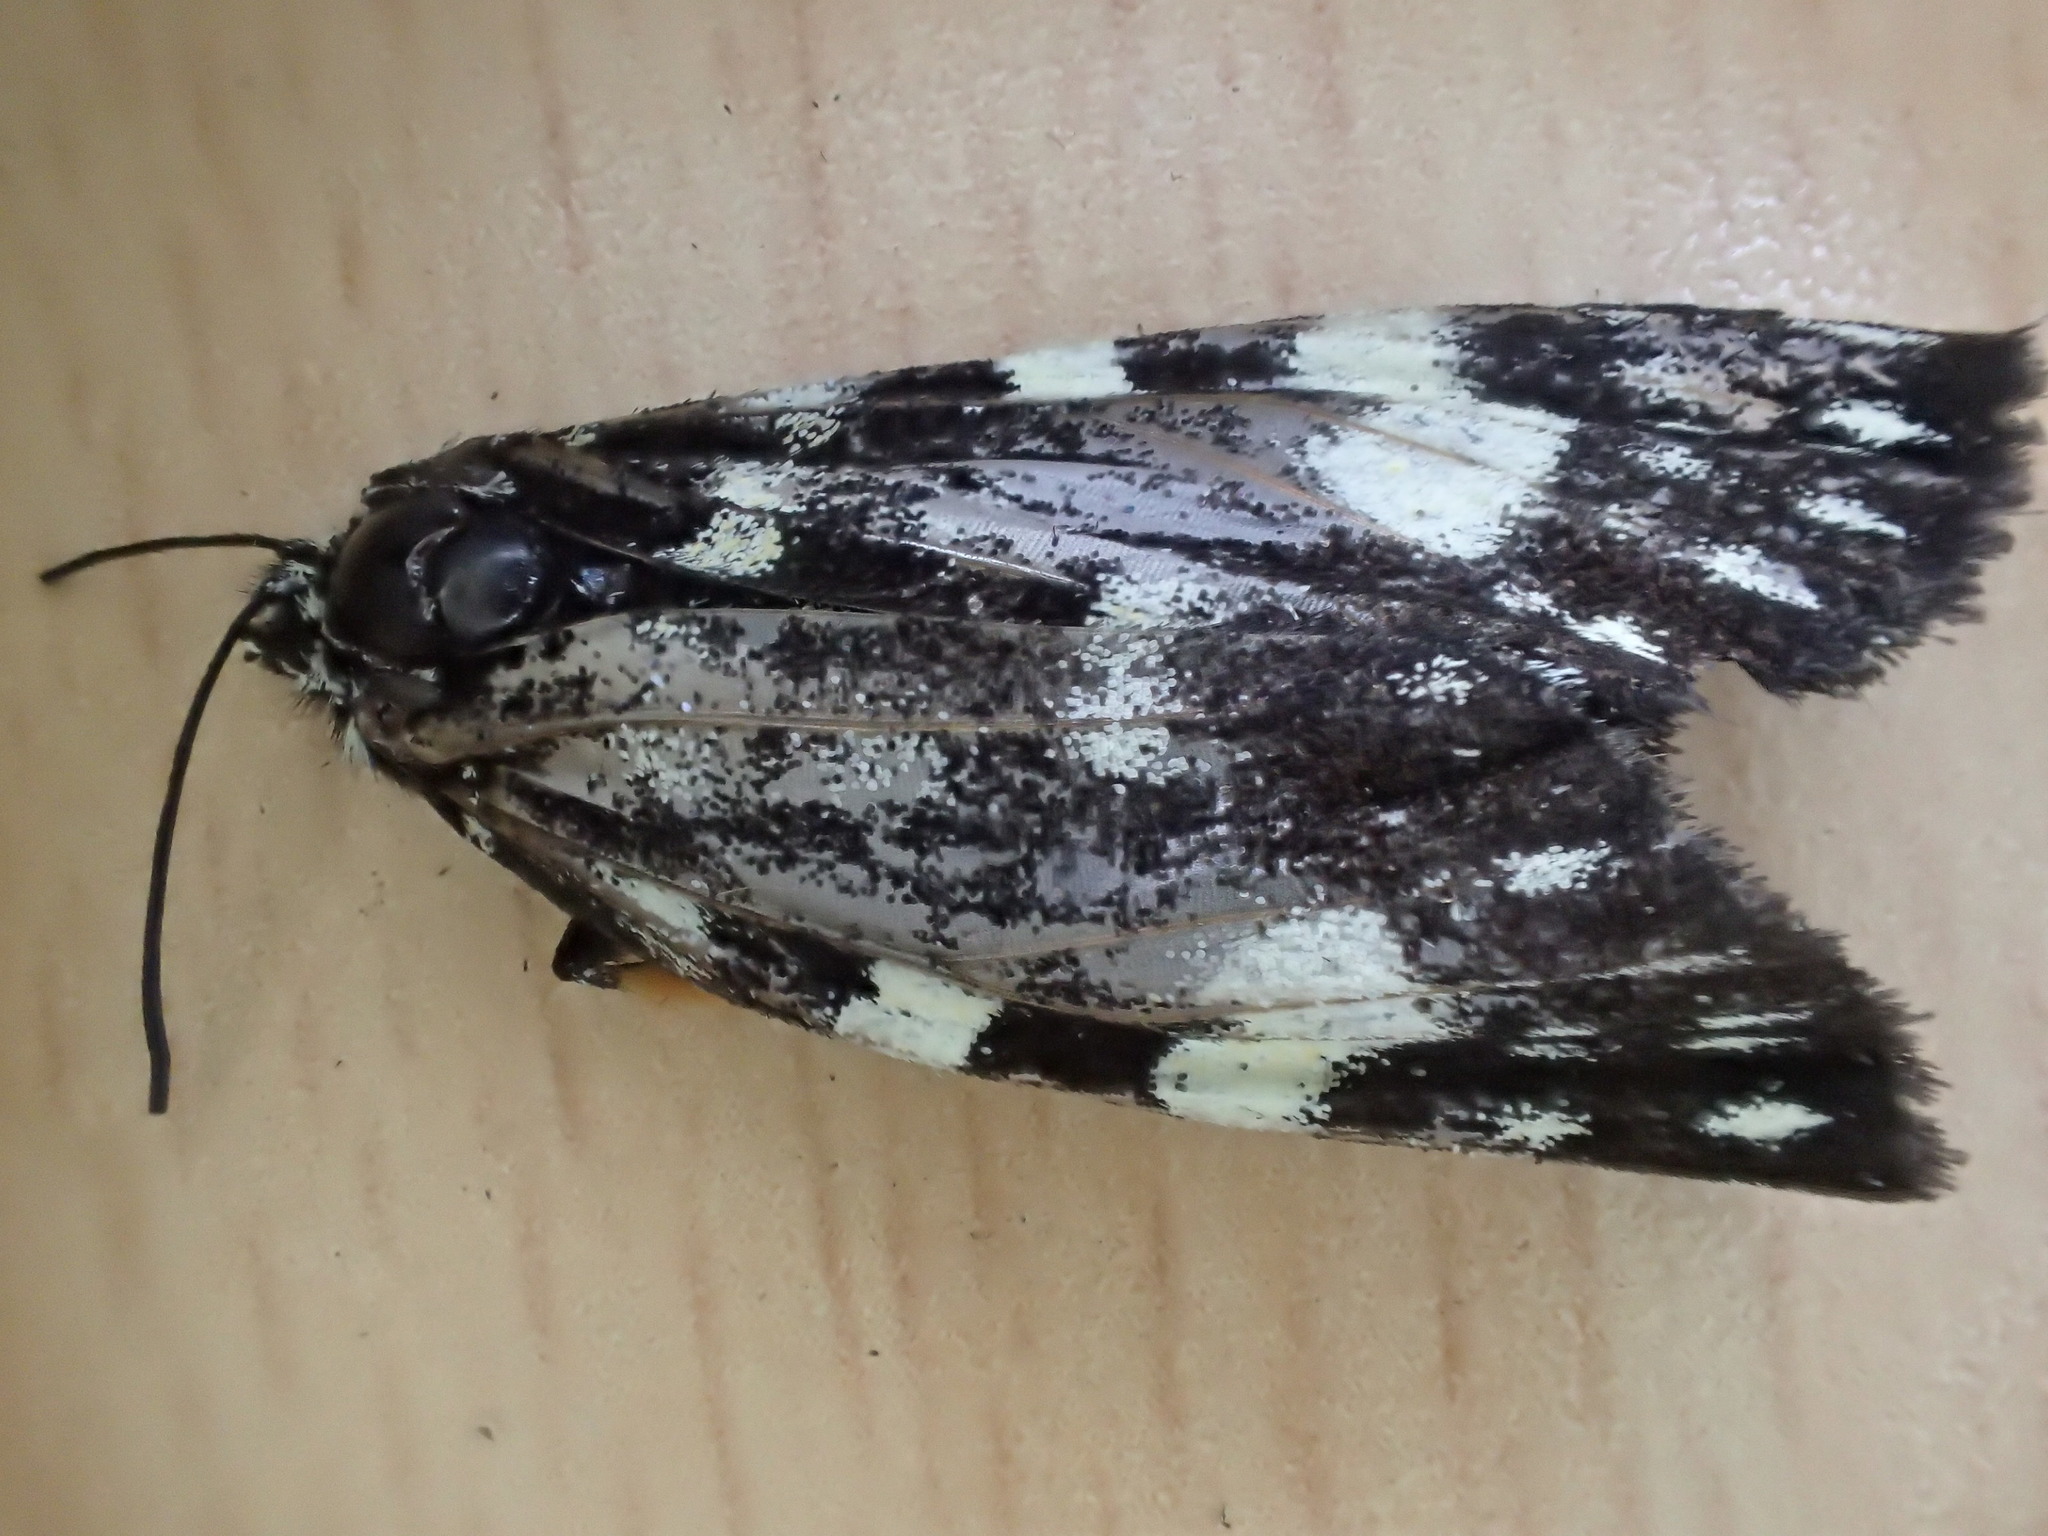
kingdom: Animalia
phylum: Arthropoda
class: Insecta
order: Lepidoptera
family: Noctuidae
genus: Phalaenoides
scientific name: Phalaenoides tristifica
